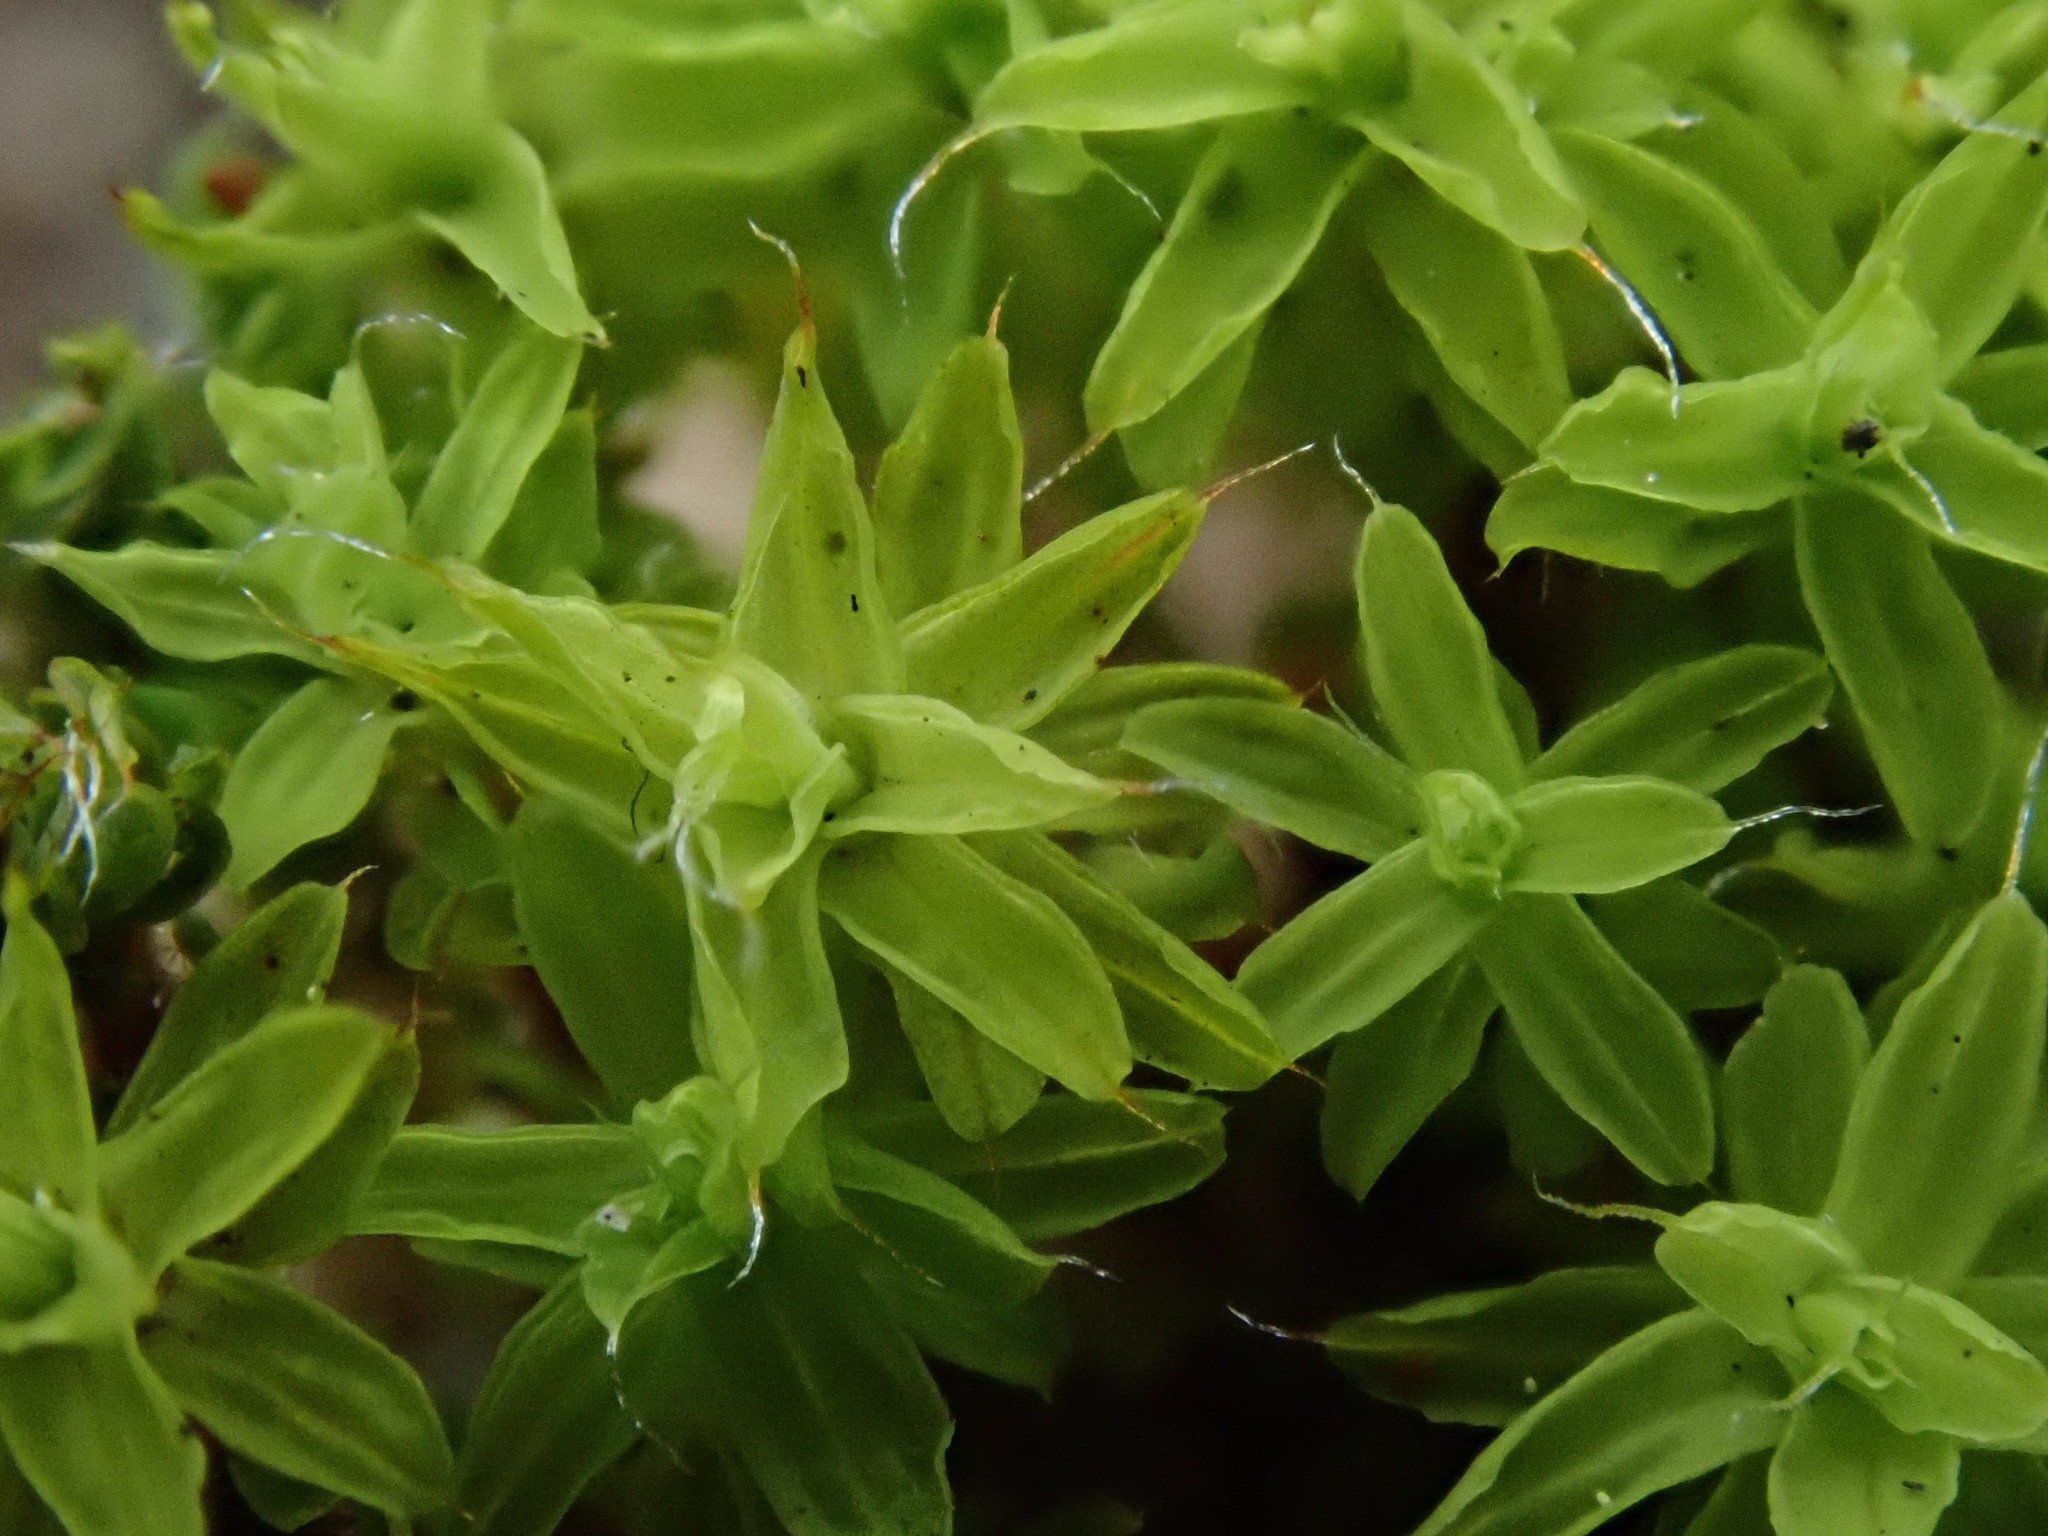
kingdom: Plantae
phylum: Bryophyta
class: Bryopsida
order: Pottiales
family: Pottiaceae
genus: Syntrichia
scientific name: Syntrichia ruralis
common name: Sidewalk screw moss
